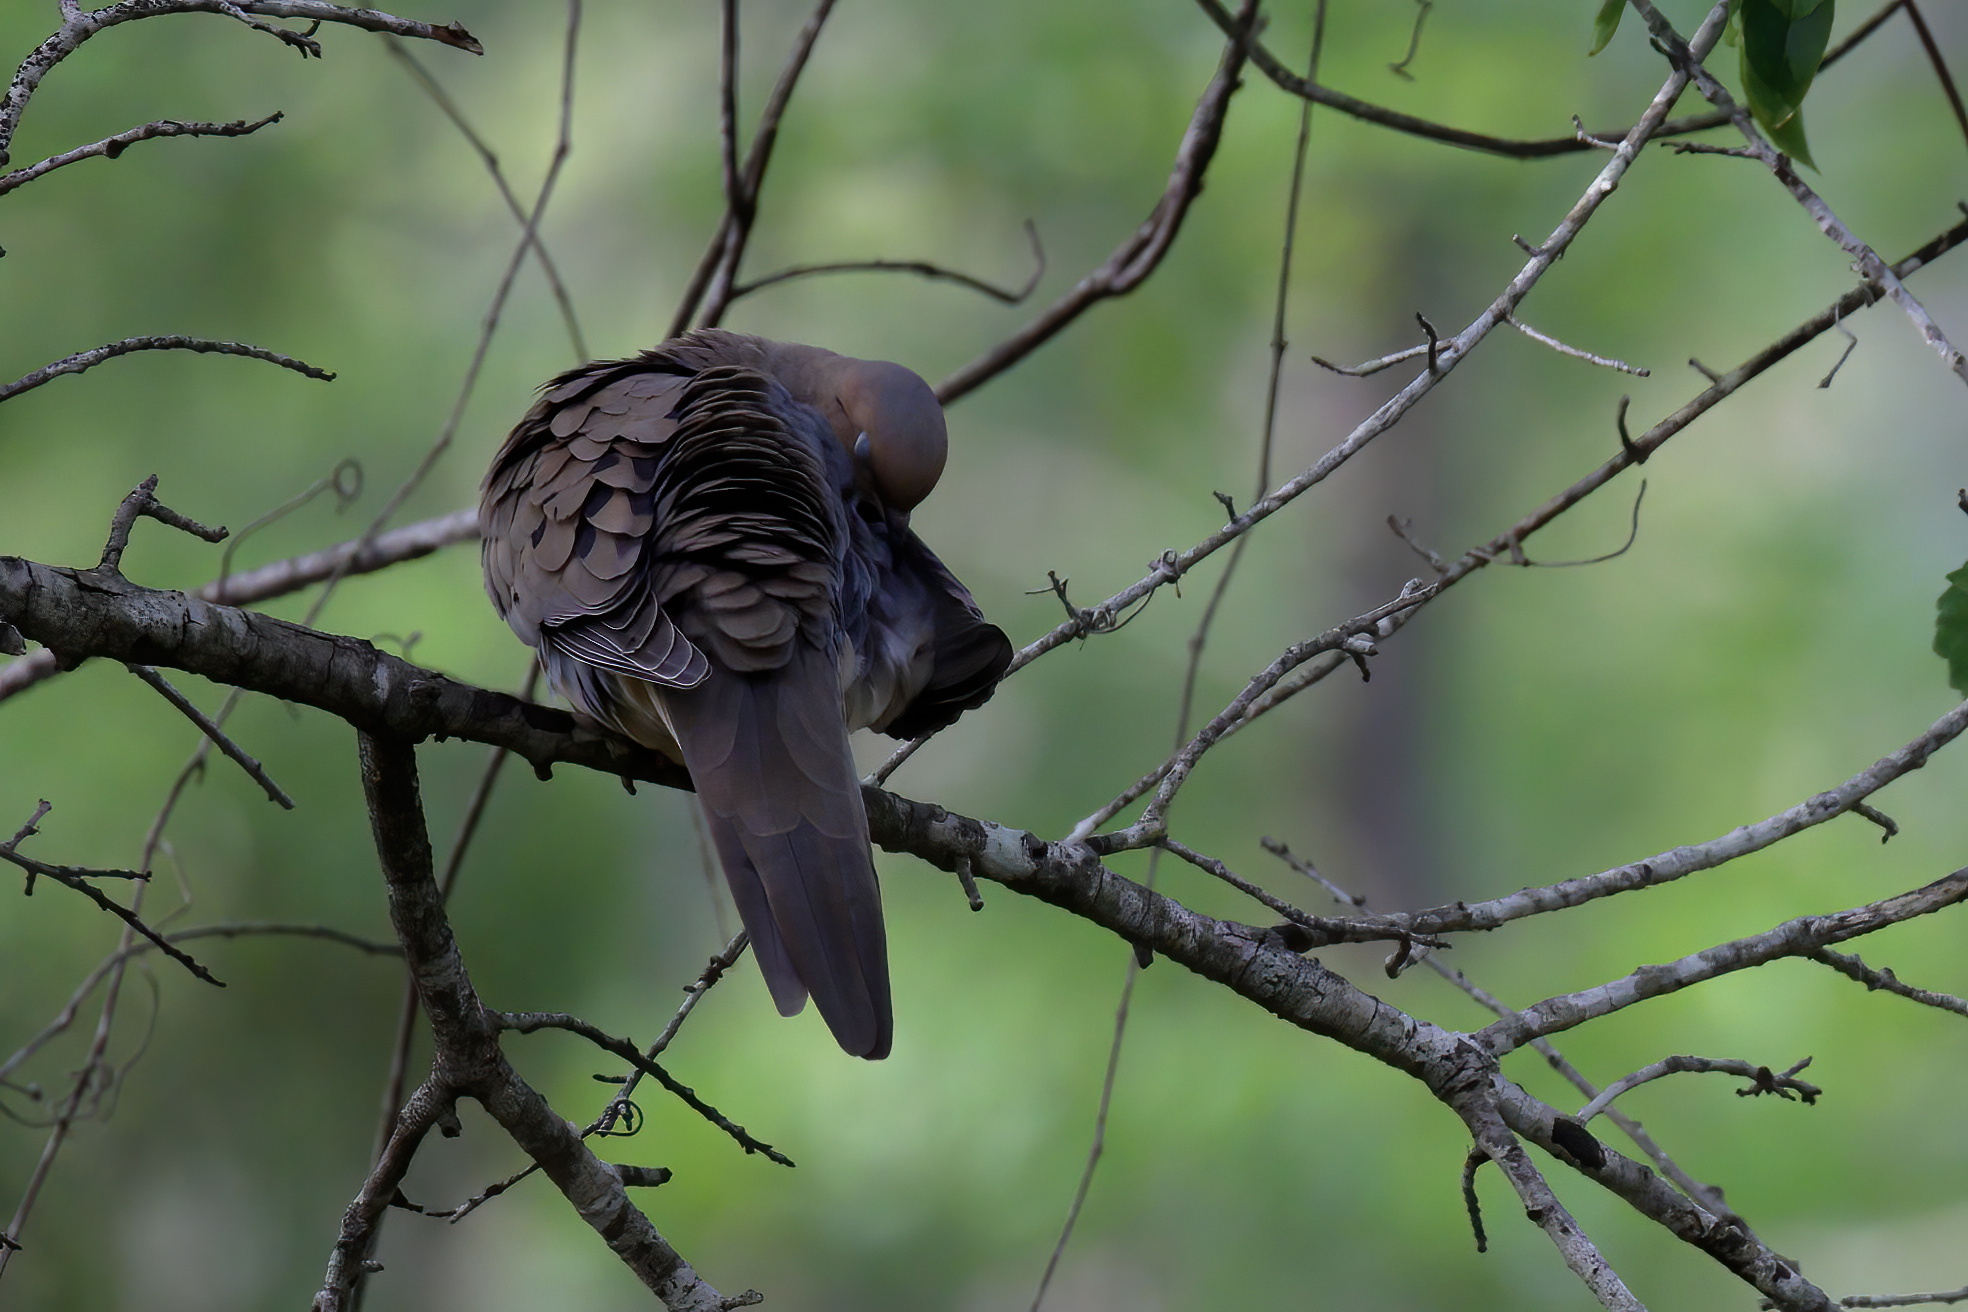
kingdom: Animalia
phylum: Chordata
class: Aves
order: Columbiformes
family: Columbidae
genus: Zenaida
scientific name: Zenaida macroura
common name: Mourning dove
